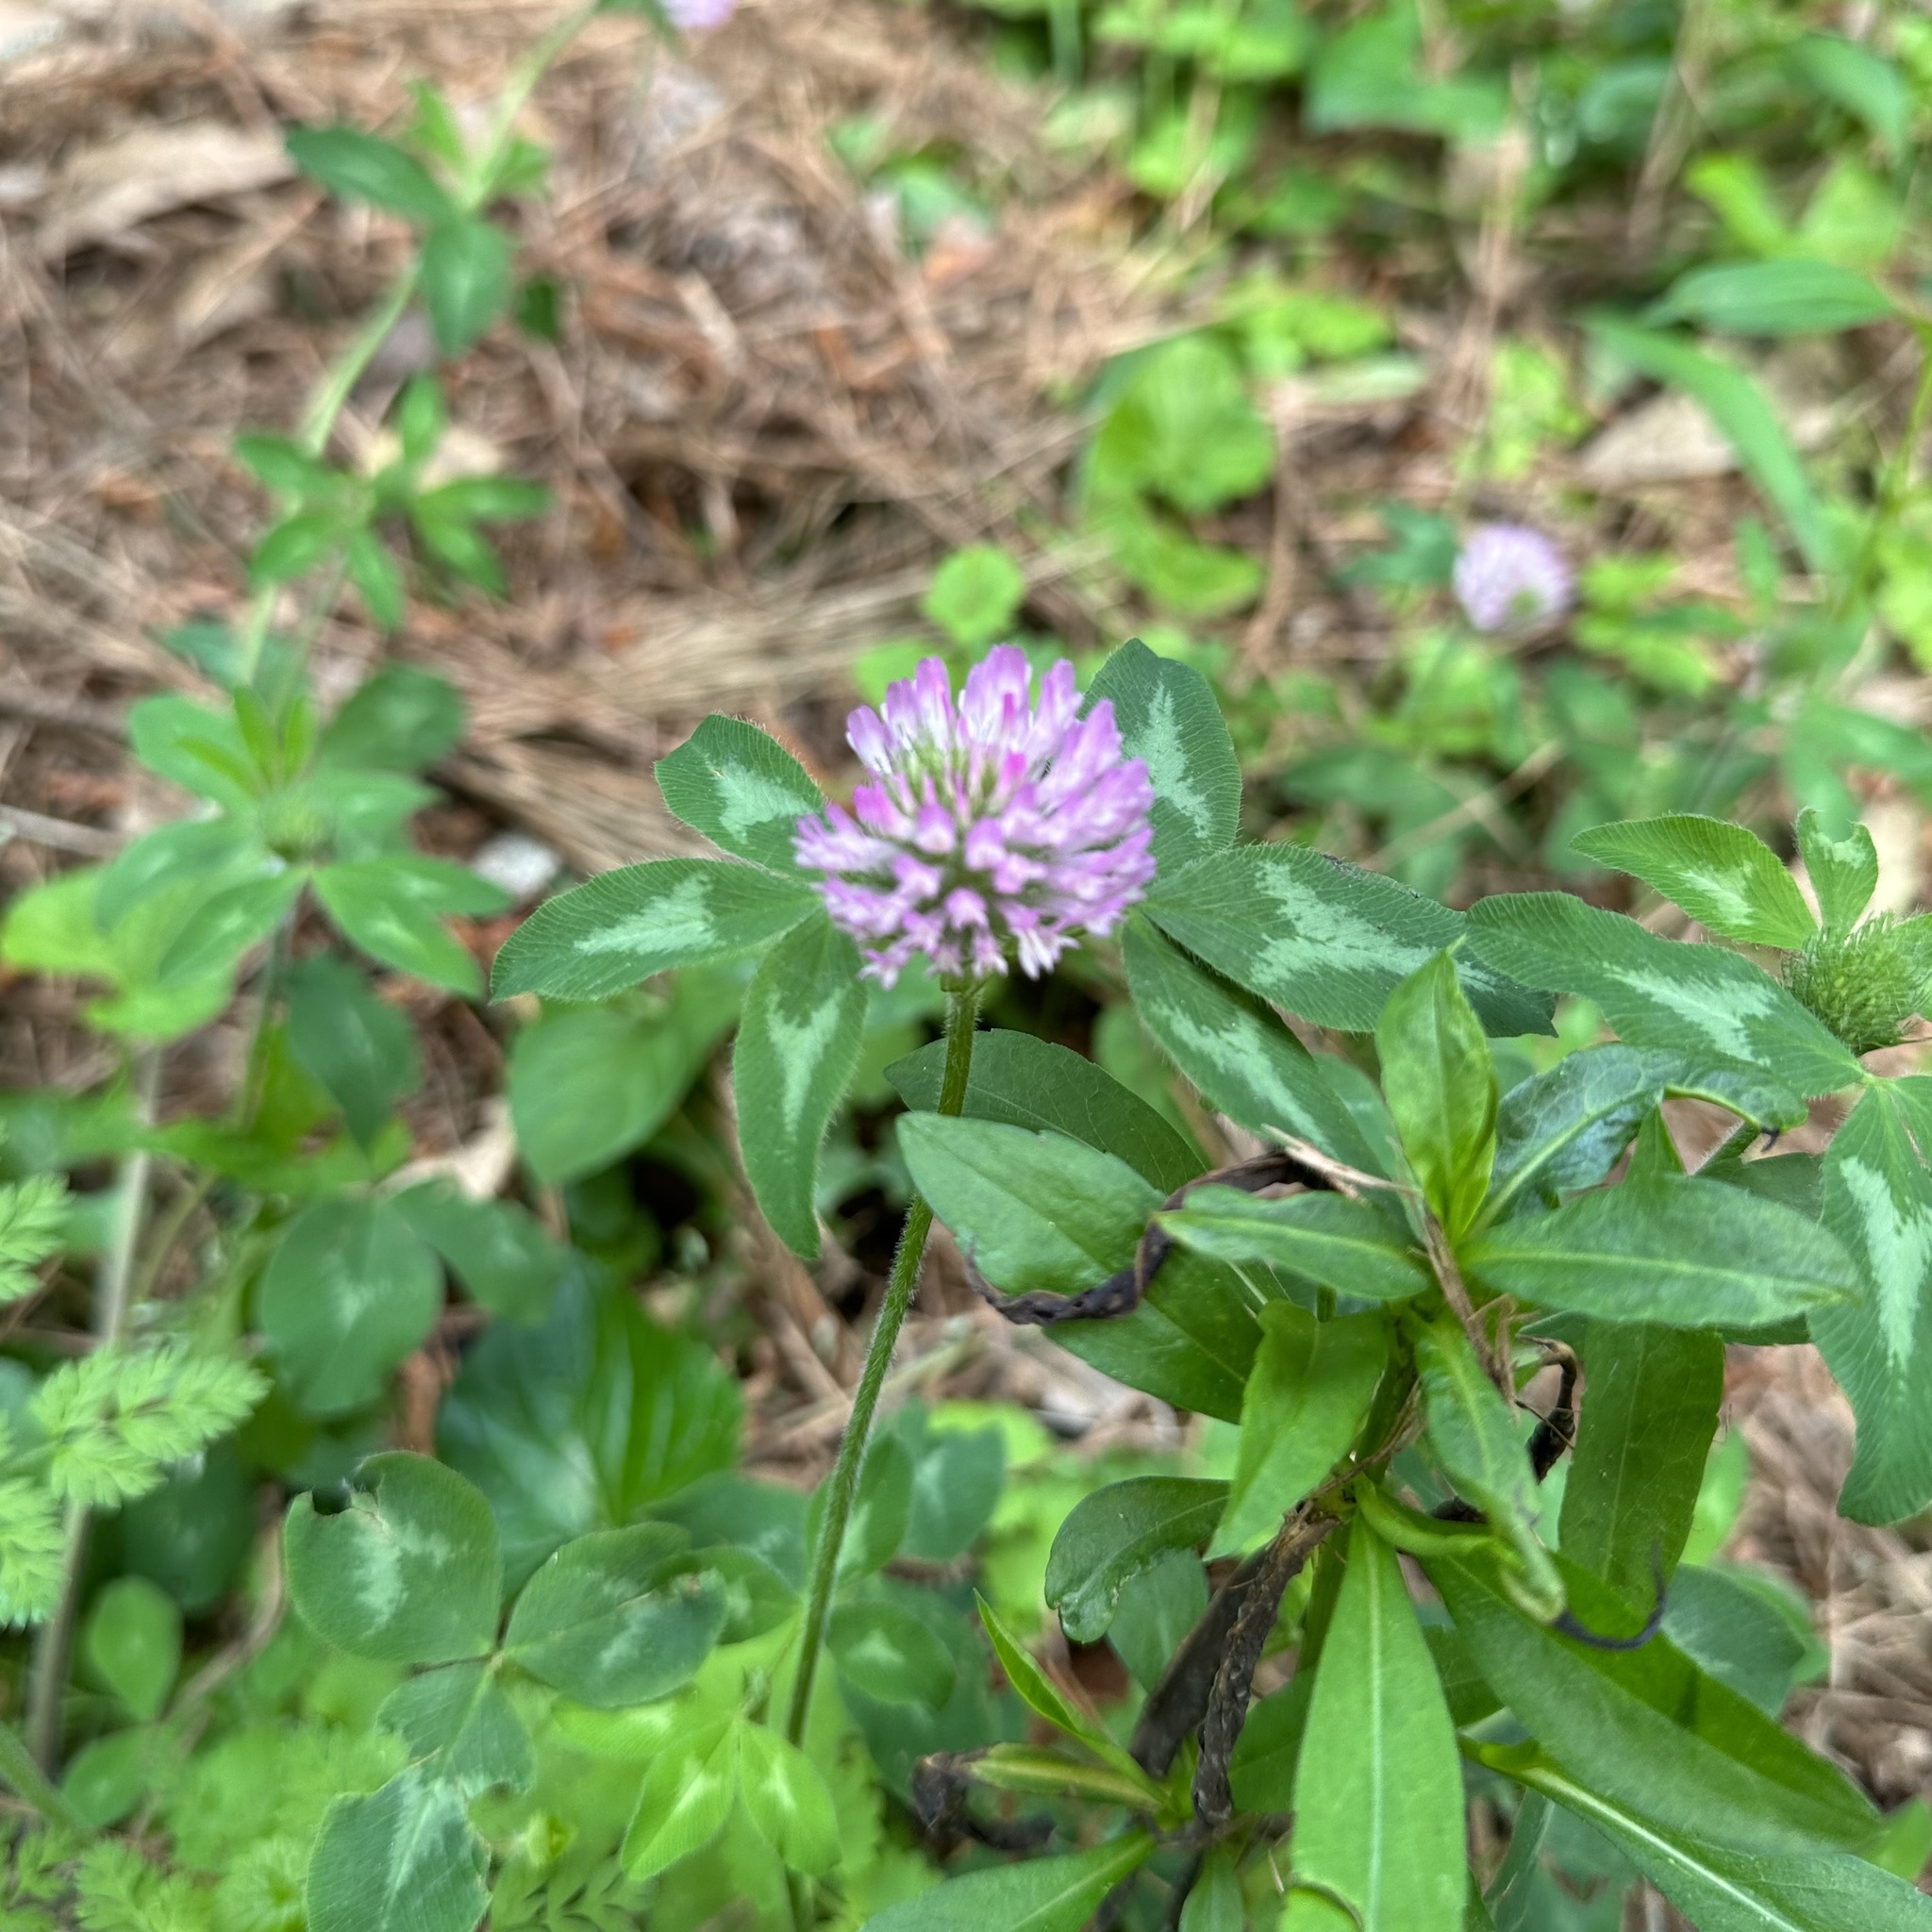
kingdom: Plantae
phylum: Tracheophyta
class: Magnoliopsida
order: Fabales
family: Fabaceae
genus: Trifolium
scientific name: Trifolium pratense
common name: Red clover
